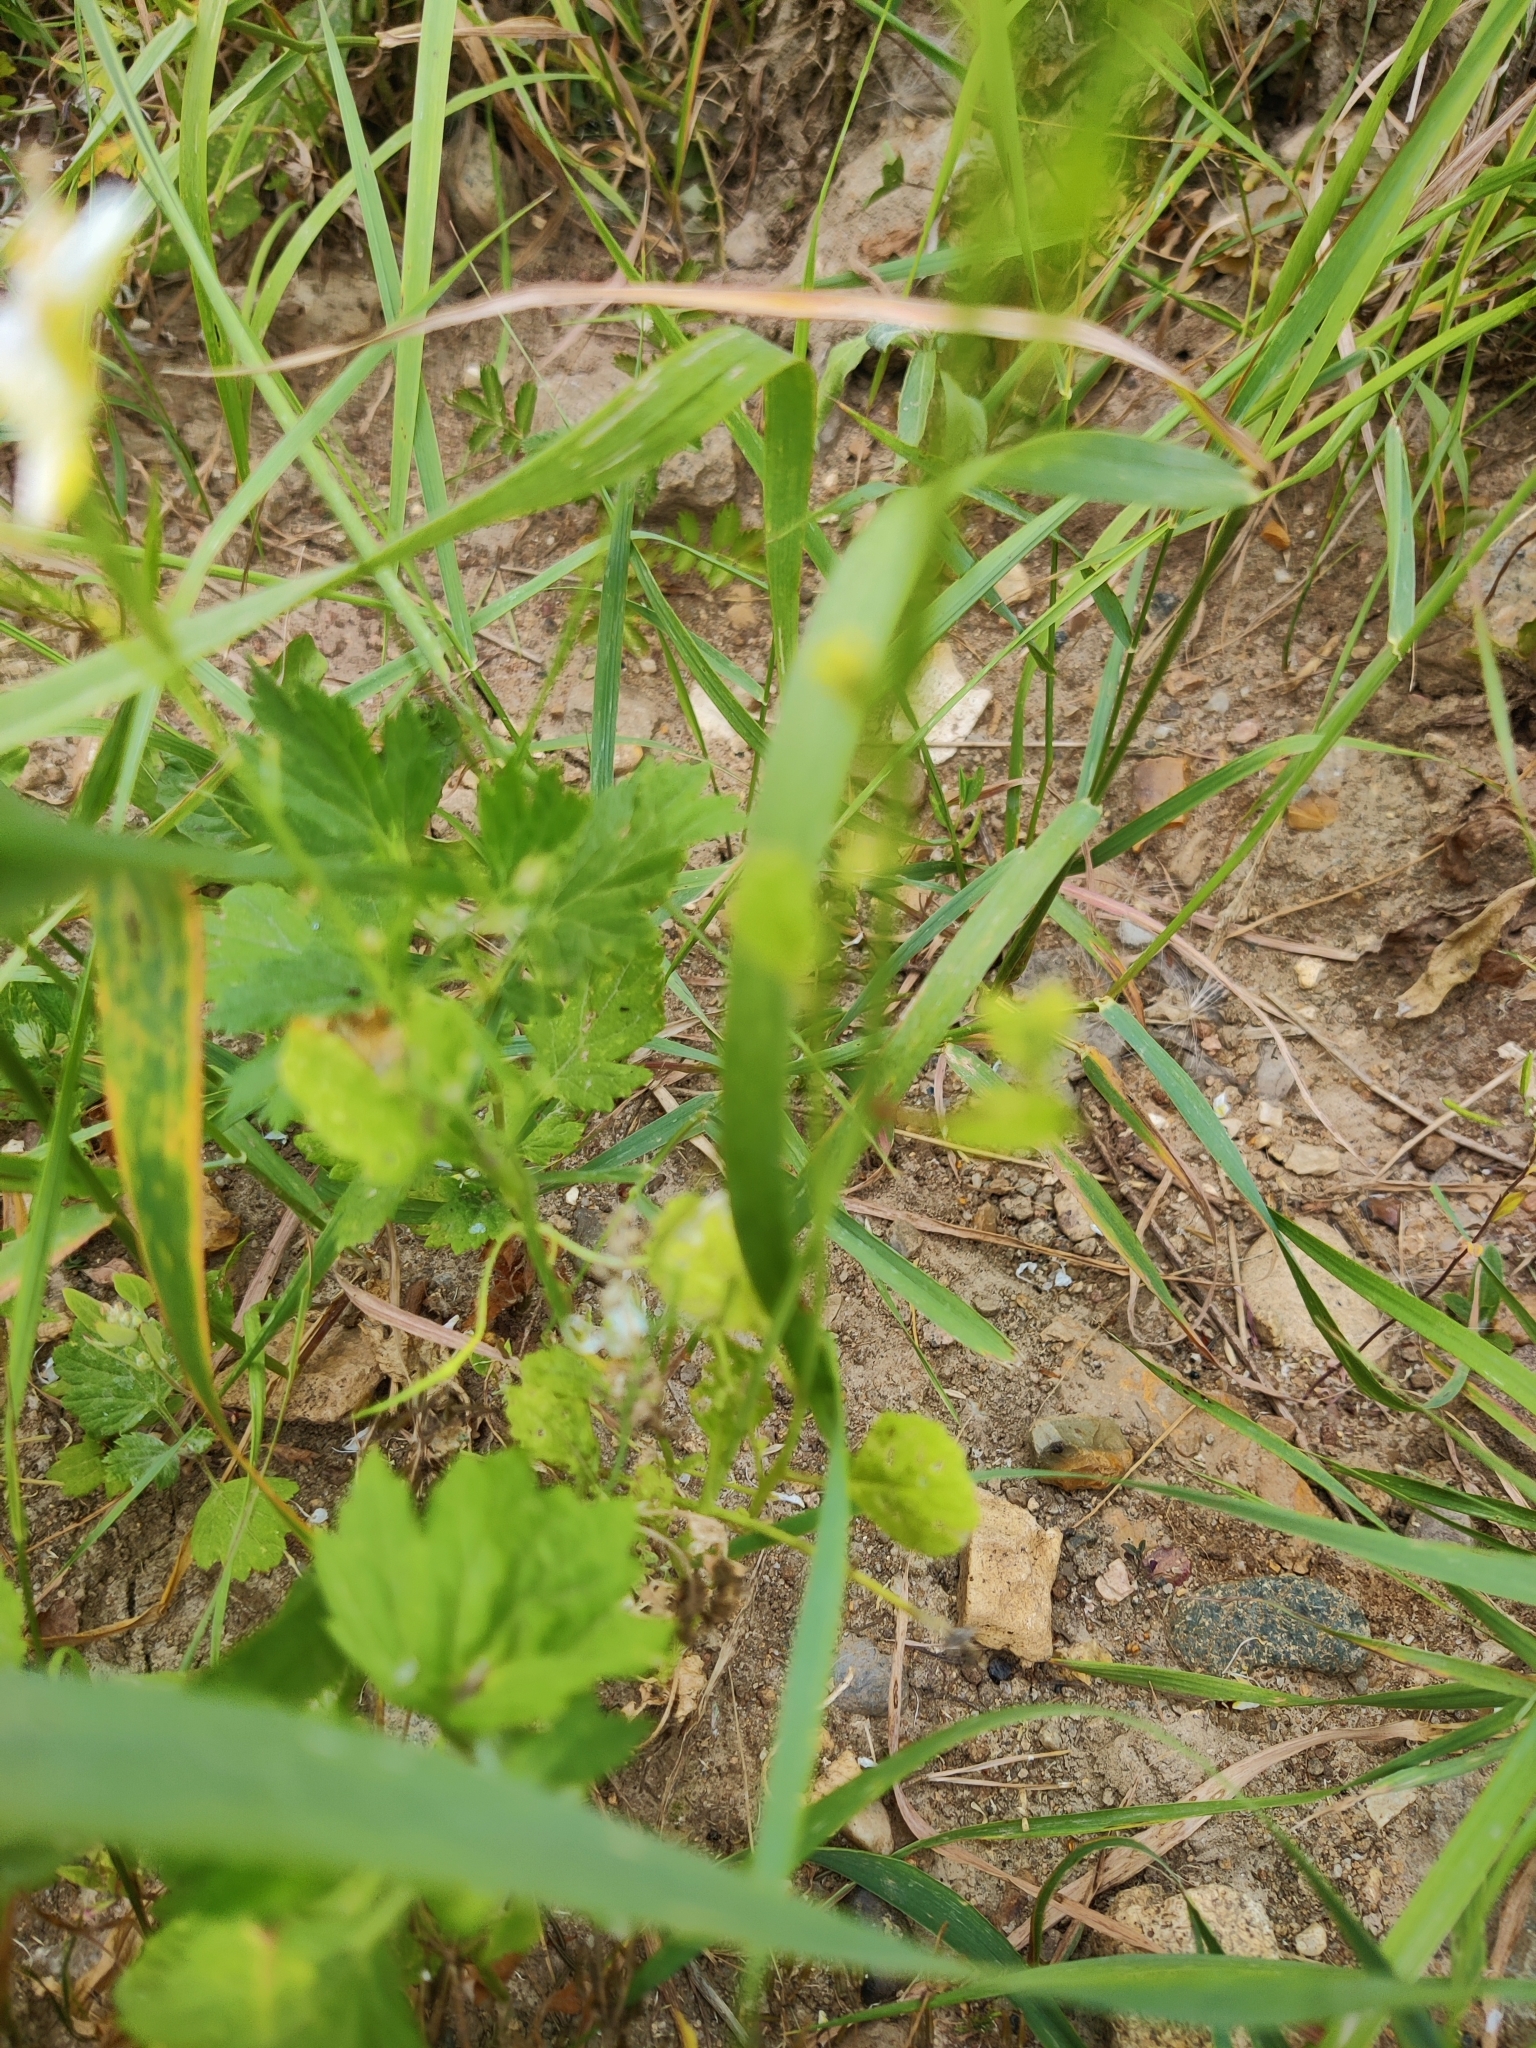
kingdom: Plantae
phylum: Tracheophyta
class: Magnoliopsida
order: Brassicales
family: Brassicaceae
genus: Raphanus
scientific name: Raphanus raphanistrum
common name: Wild radish
